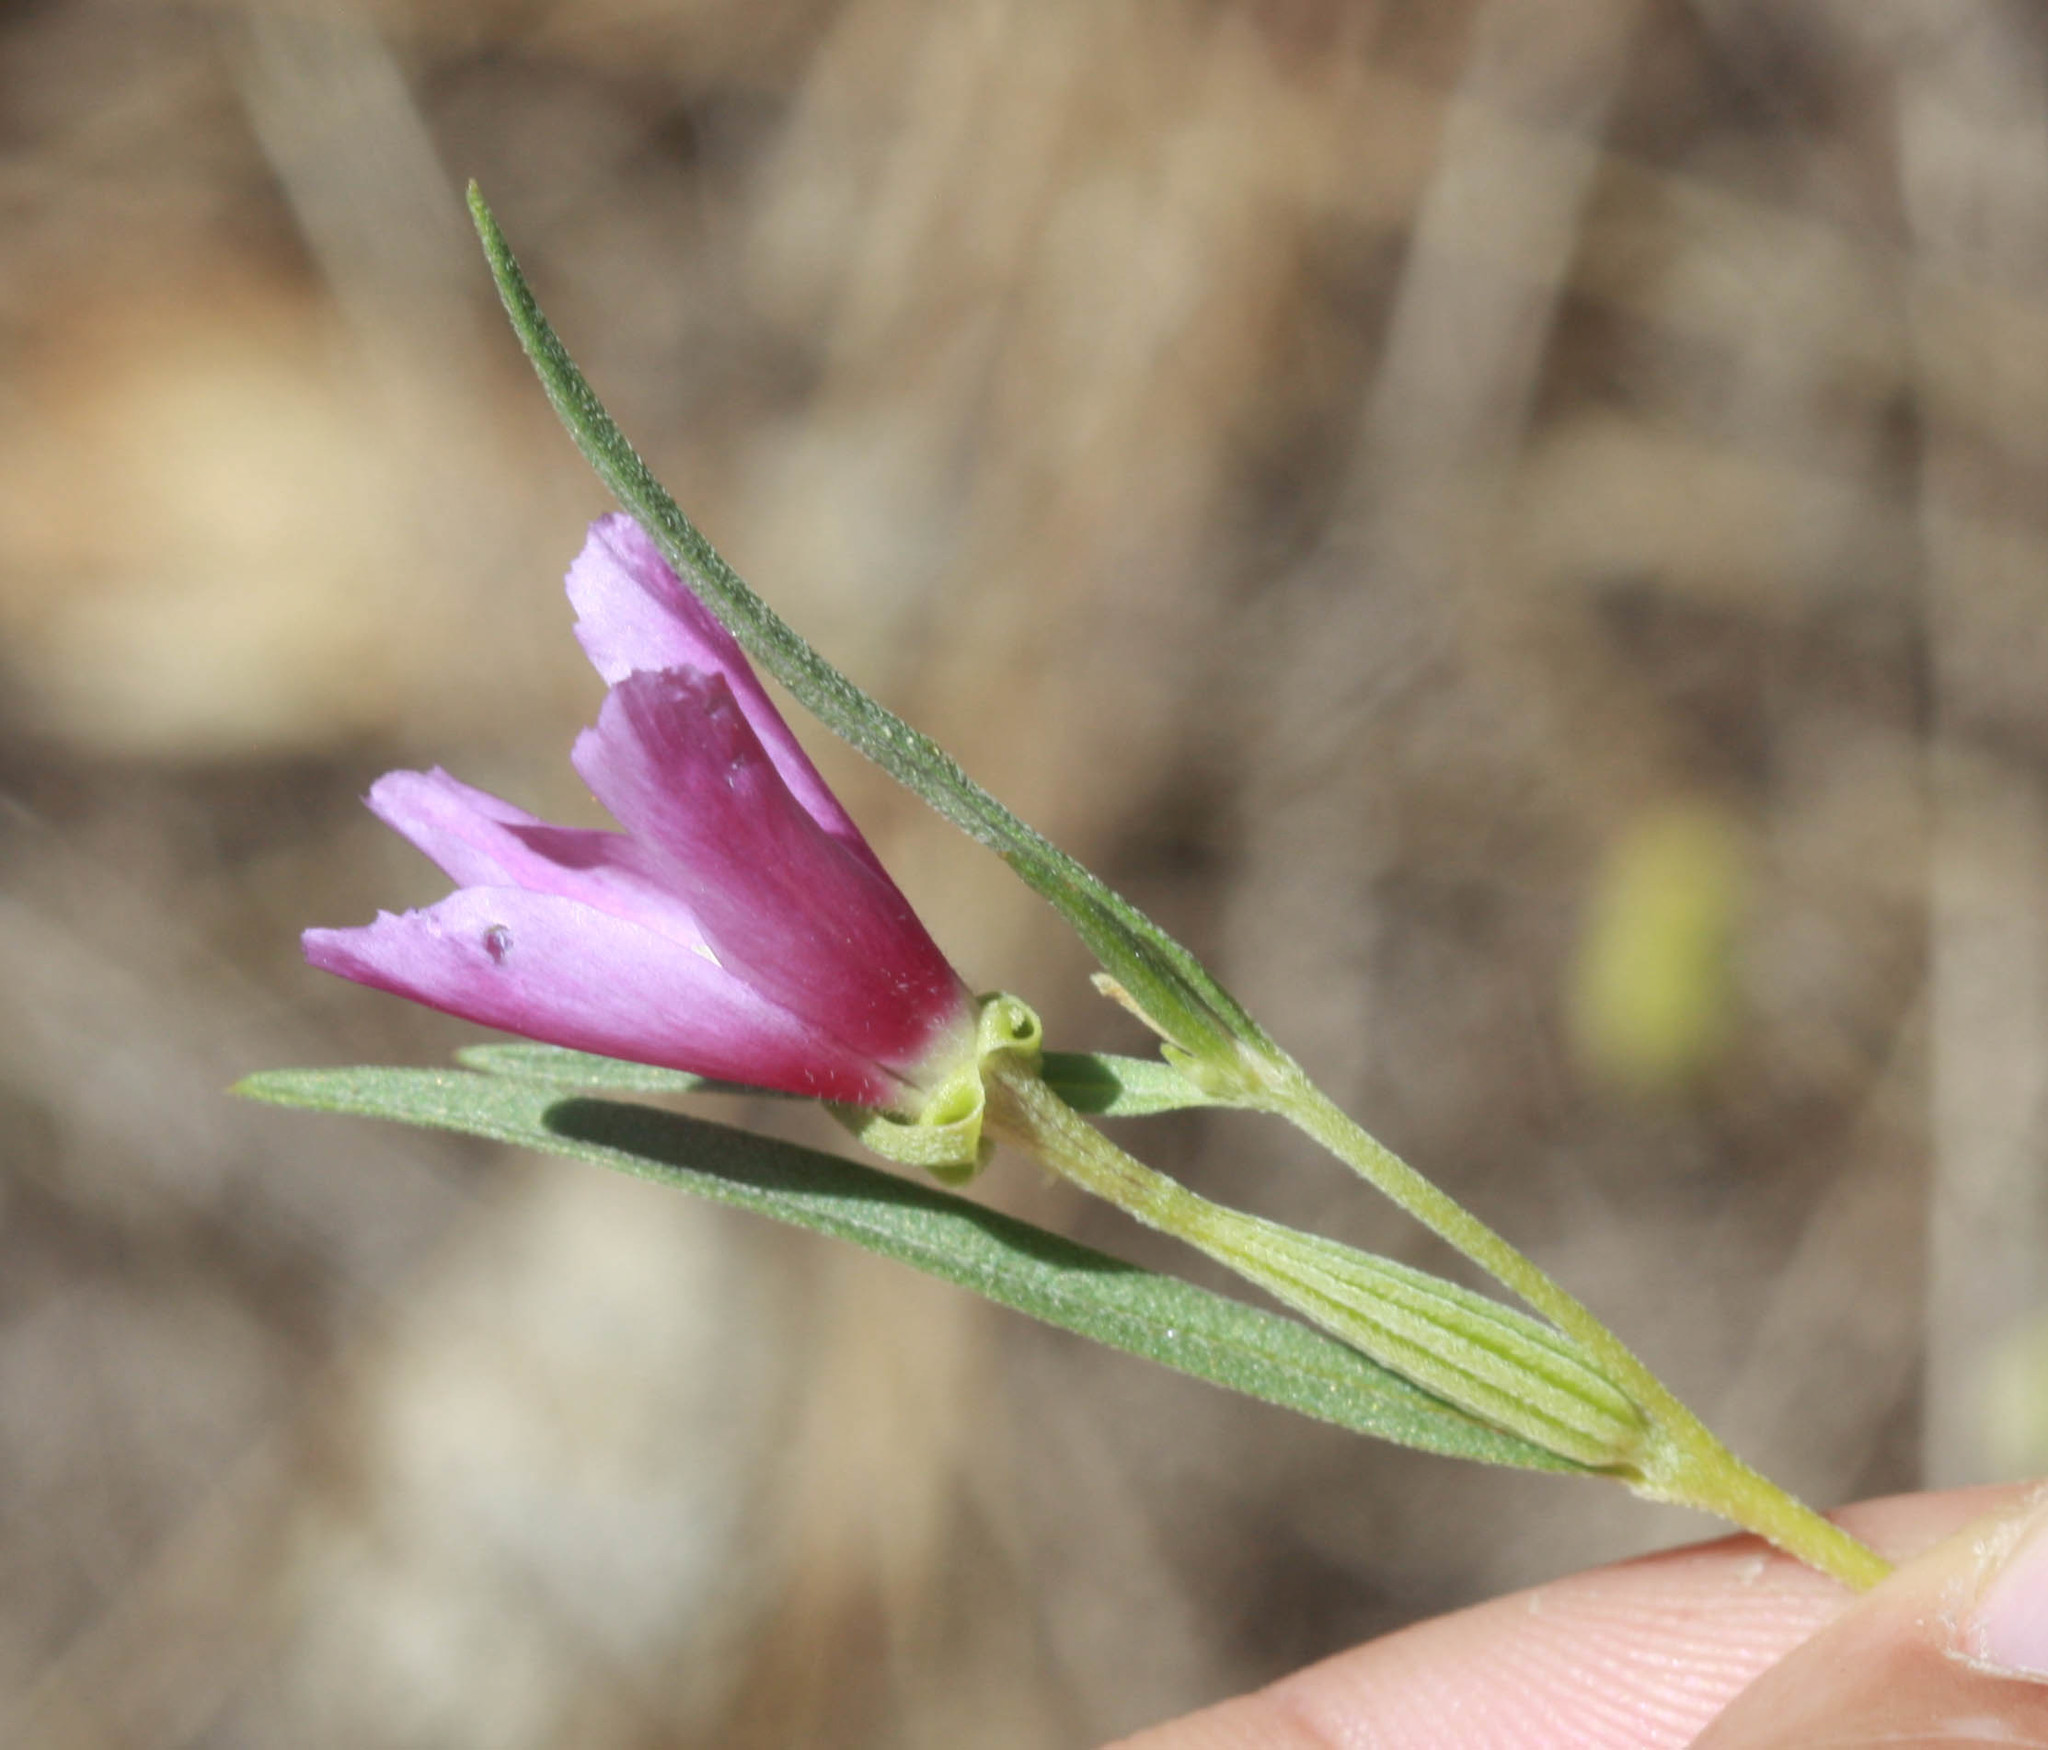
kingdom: Plantae
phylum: Tracheophyta
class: Magnoliopsida
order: Myrtales
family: Onagraceae
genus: Clarkia
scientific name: Clarkia purpurea
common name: Purple clarkia
